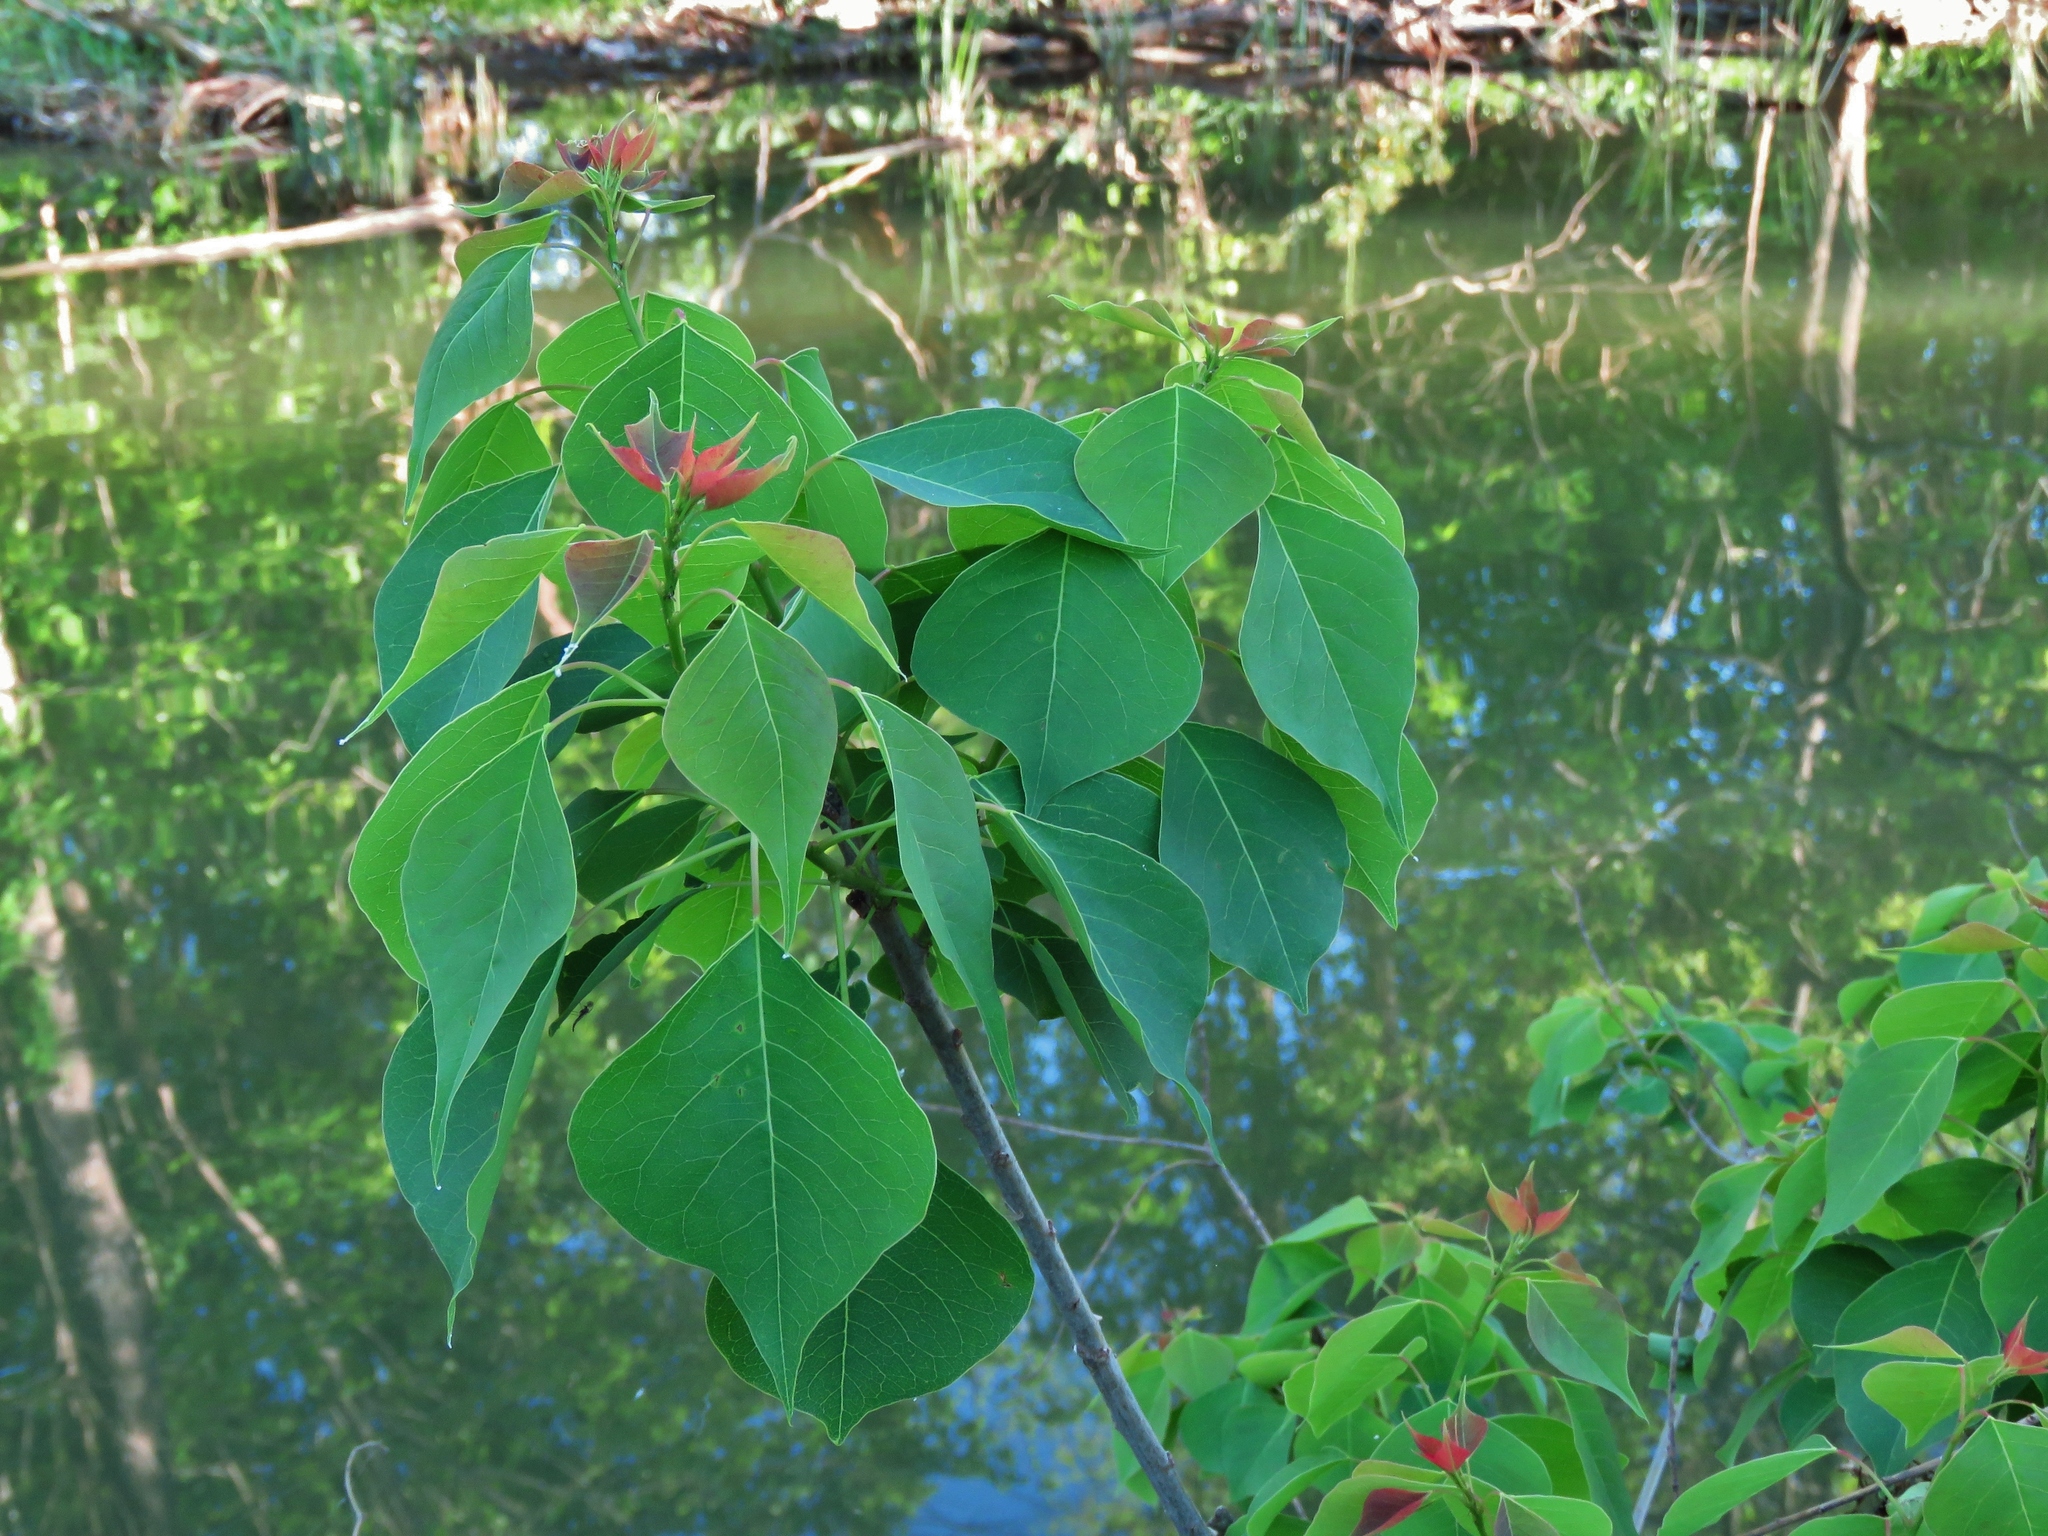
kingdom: Plantae
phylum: Tracheophyta
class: Magnoliopsida
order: Malpighiales
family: Euphorbiaceae
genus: Triadica
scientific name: Triadica sebifera
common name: Chinese tallow
